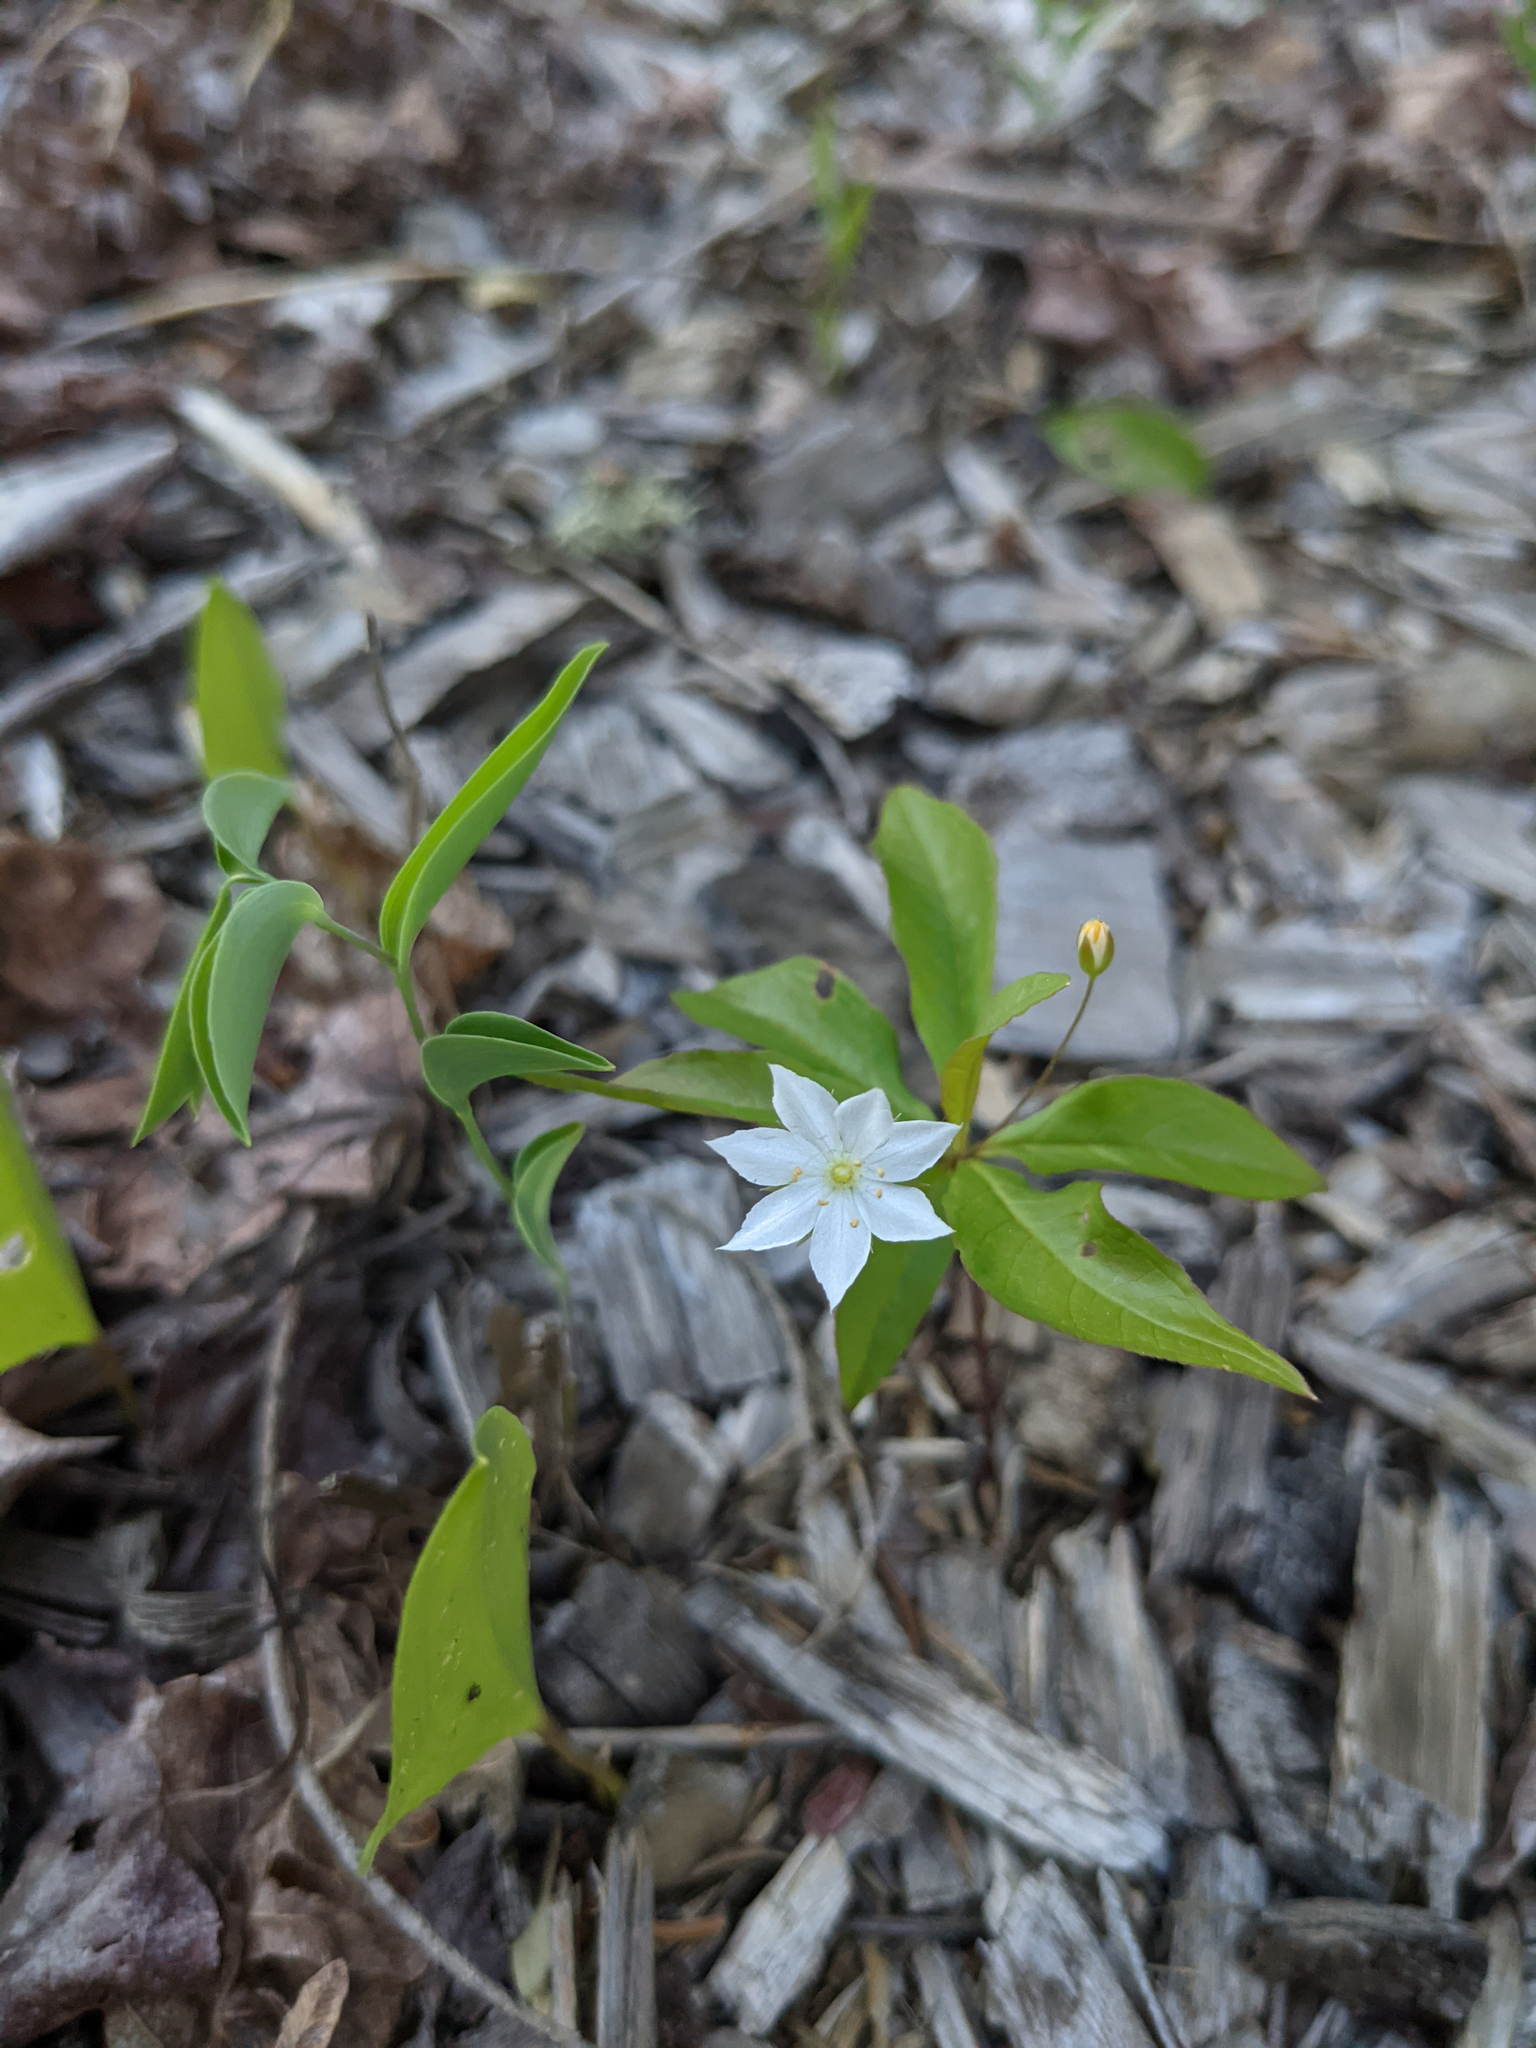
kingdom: Plantae
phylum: Tracheophyta
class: Magnoliopsida
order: Ericales
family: Primulaceae
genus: Lysimachia
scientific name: Lysimachia borealis
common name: American starflower
